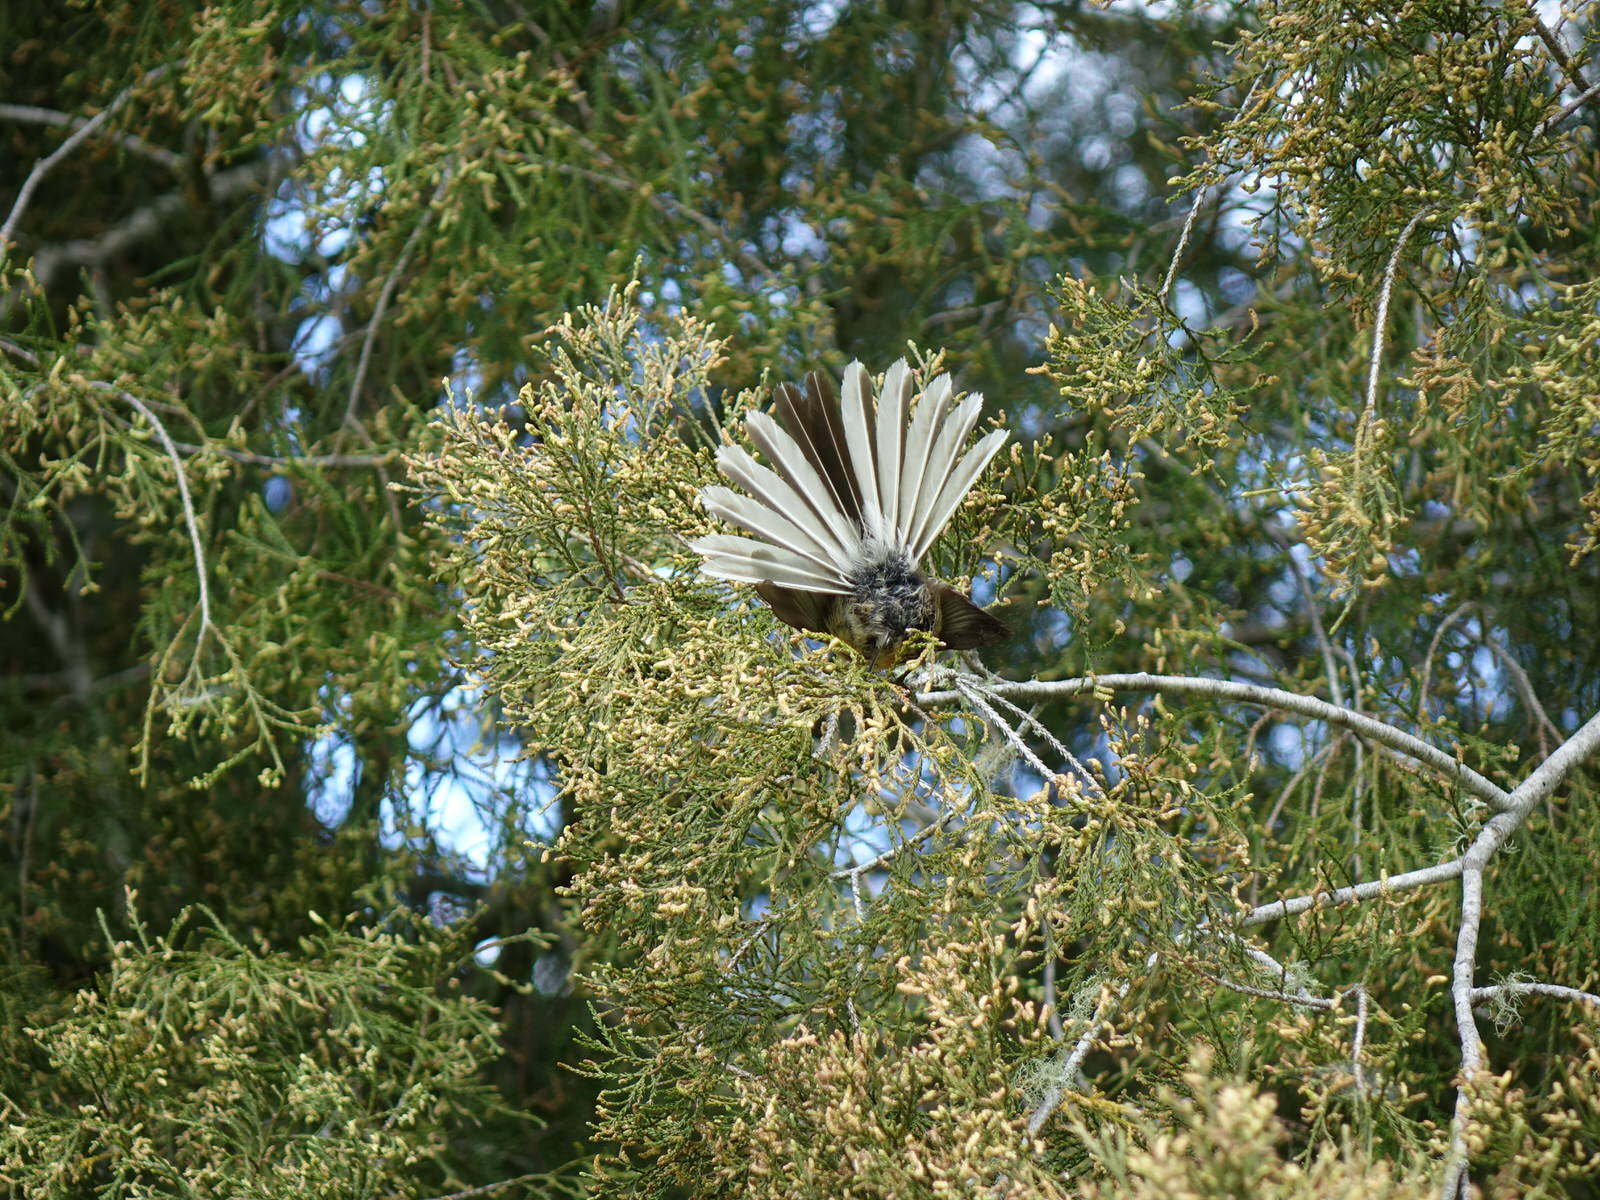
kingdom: Animalia
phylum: Chordata
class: Aves
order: Passeriformes
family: Rhipiduridae
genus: Rhipidura
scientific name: Rhipidura fuliginosa
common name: New zealand fantail
